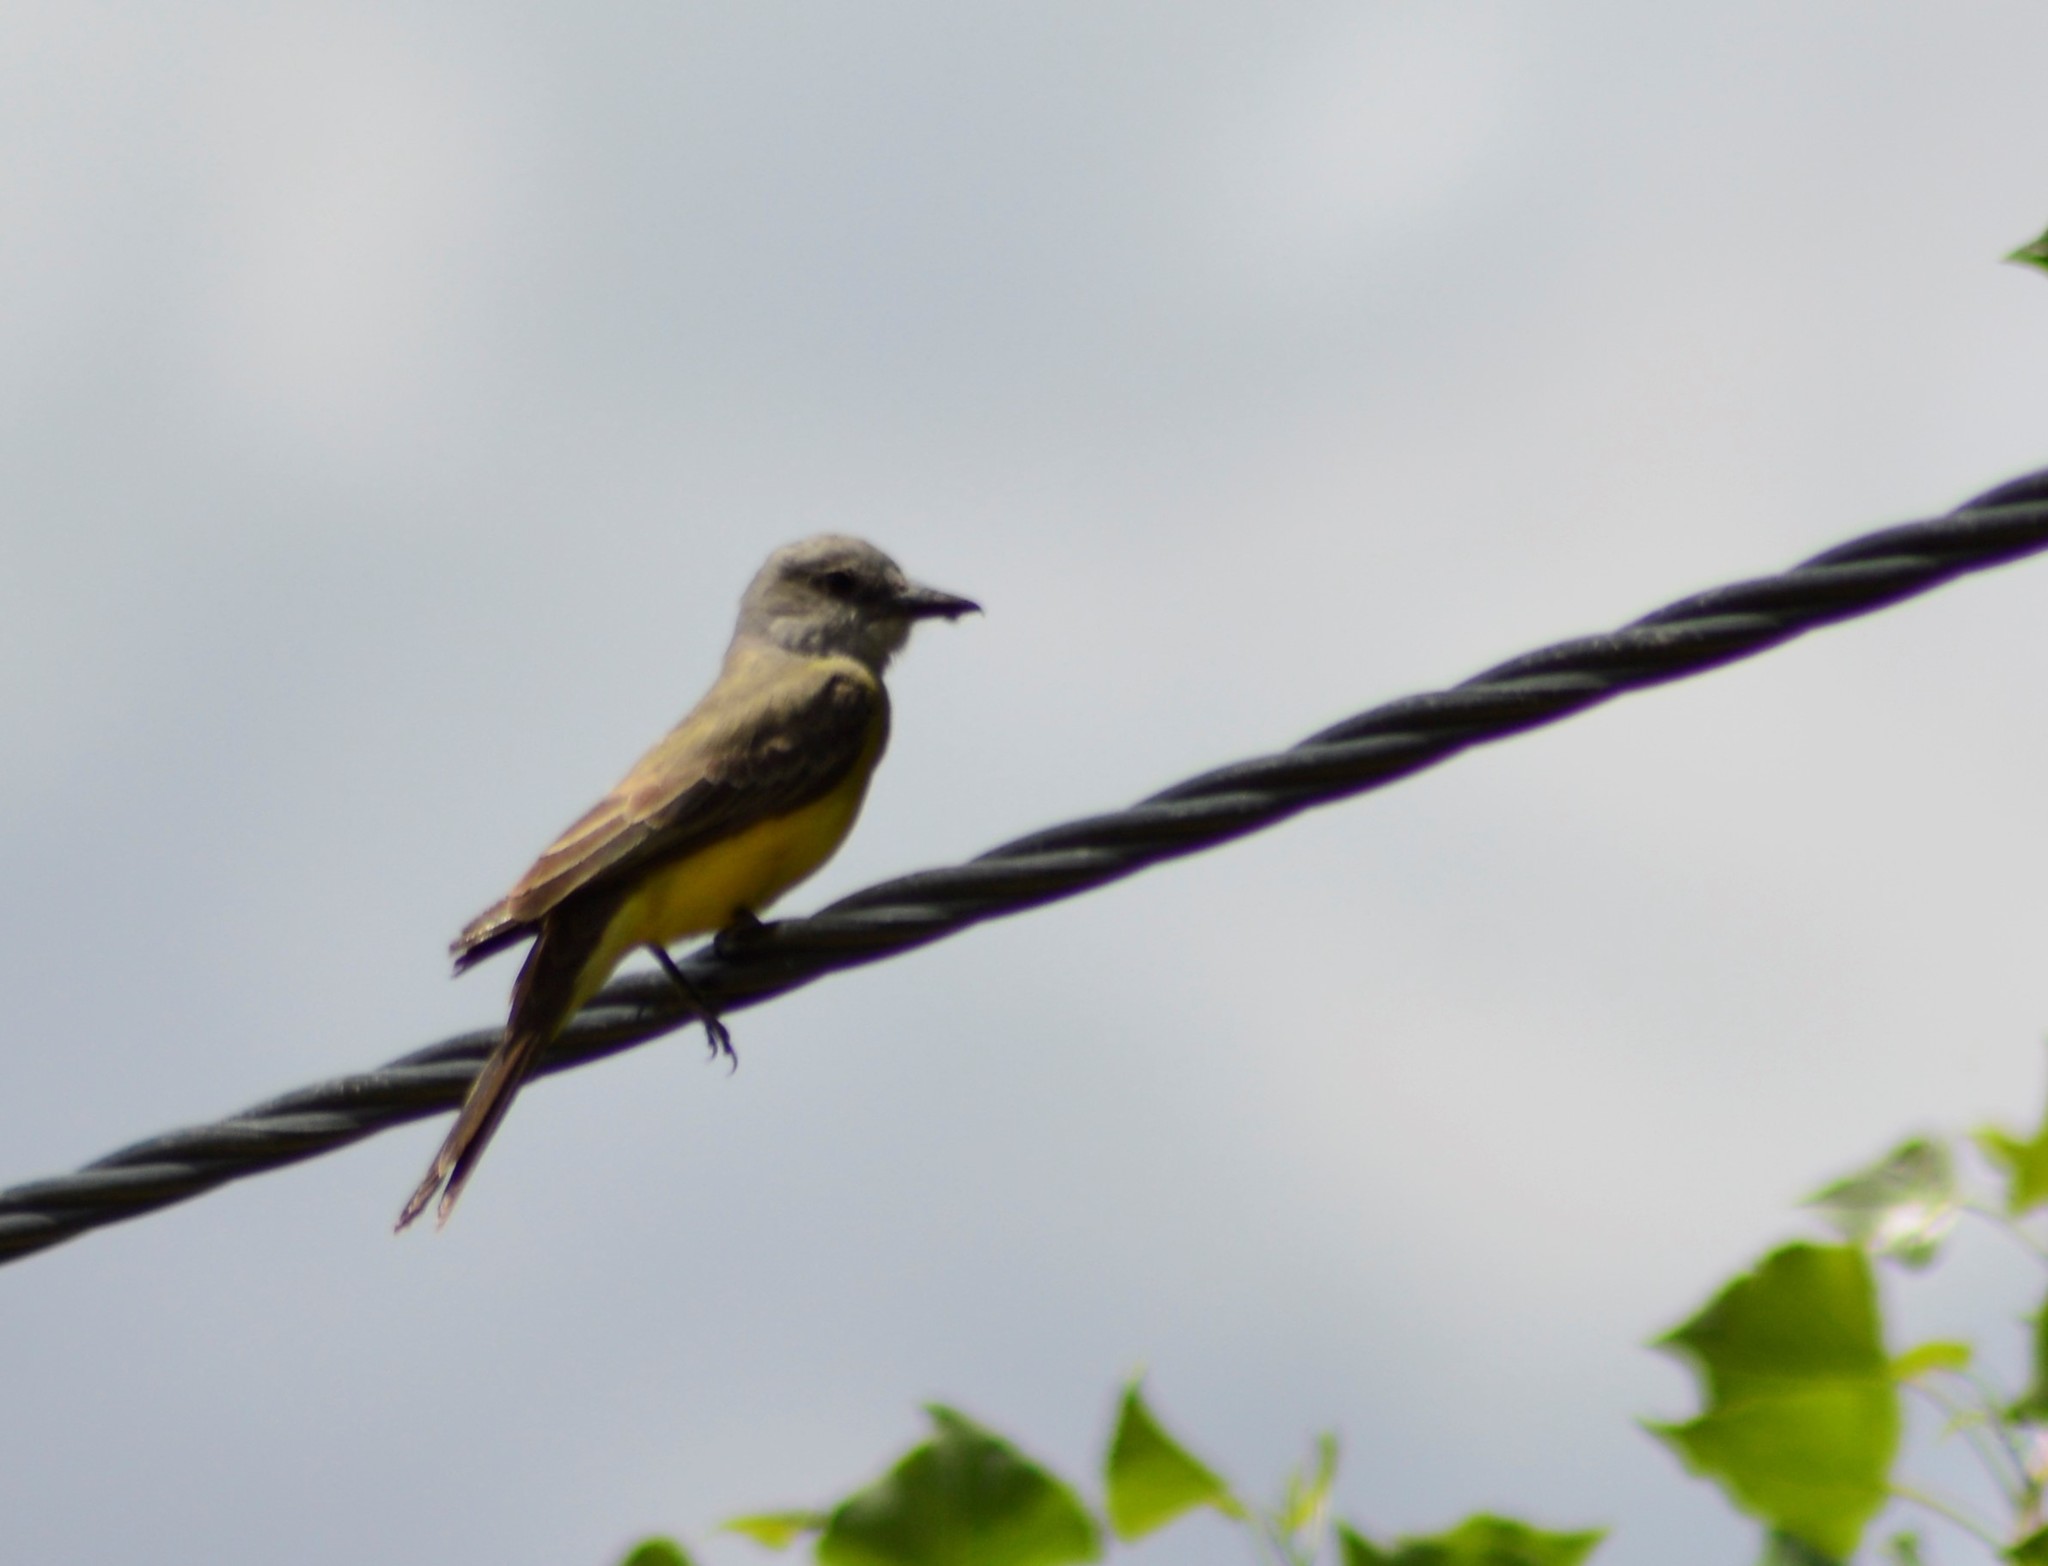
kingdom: Animalia
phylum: Chordata
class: Aves
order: Passeriformes
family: Tyrannidae
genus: Tyrannus
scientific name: Tyrannus melancholicus
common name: Tropical kingbird
